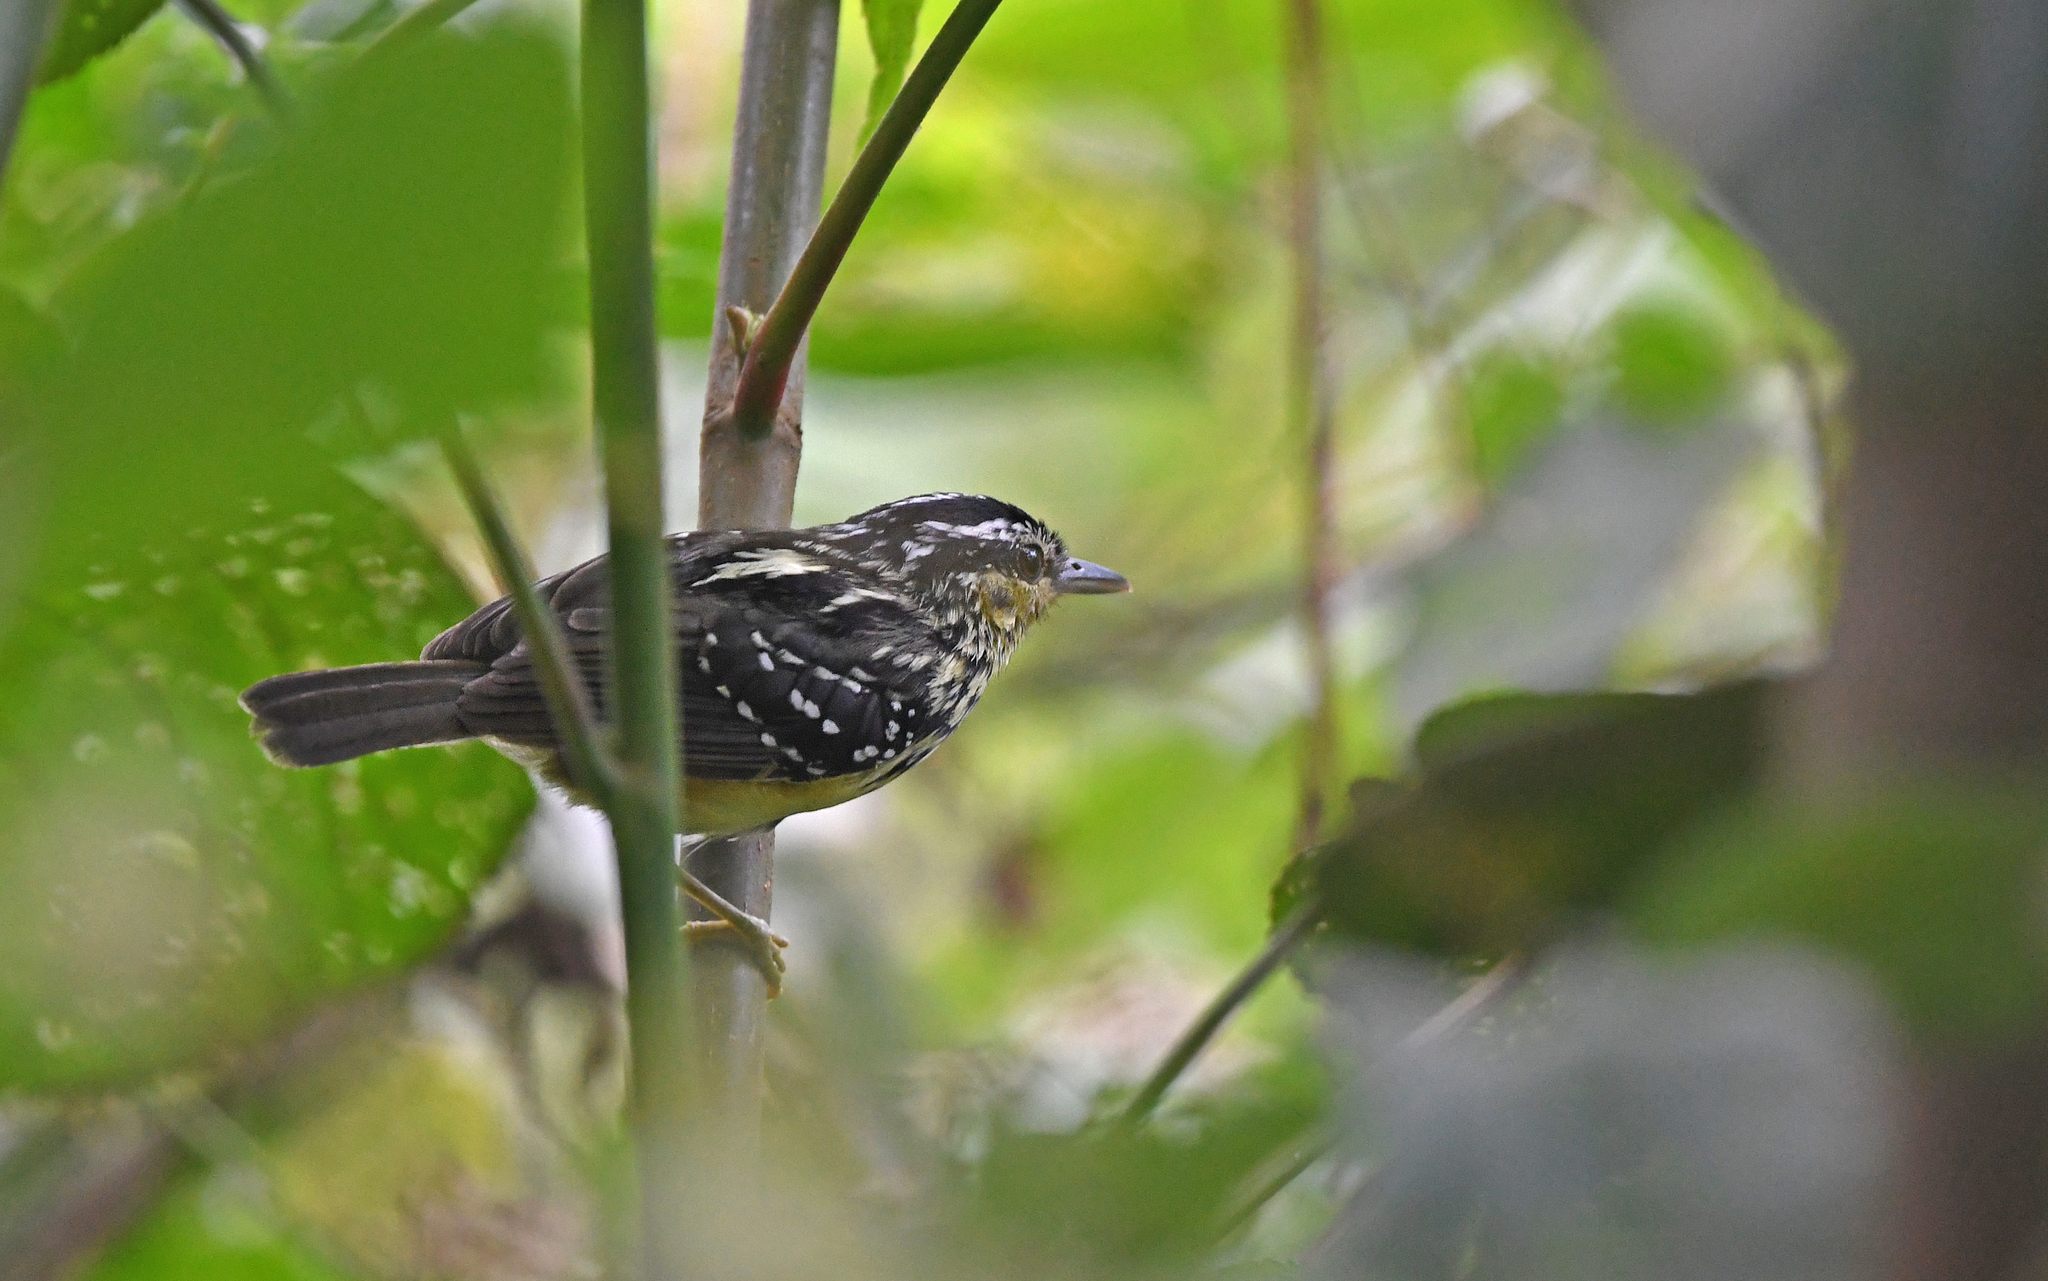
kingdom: Animalia
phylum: Chordata
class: Aves
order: Passeriformes
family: Thamnophilidae
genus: Hypocnemis
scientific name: Hypocnemis subflava
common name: Yellow-breasted warbling-antbird
